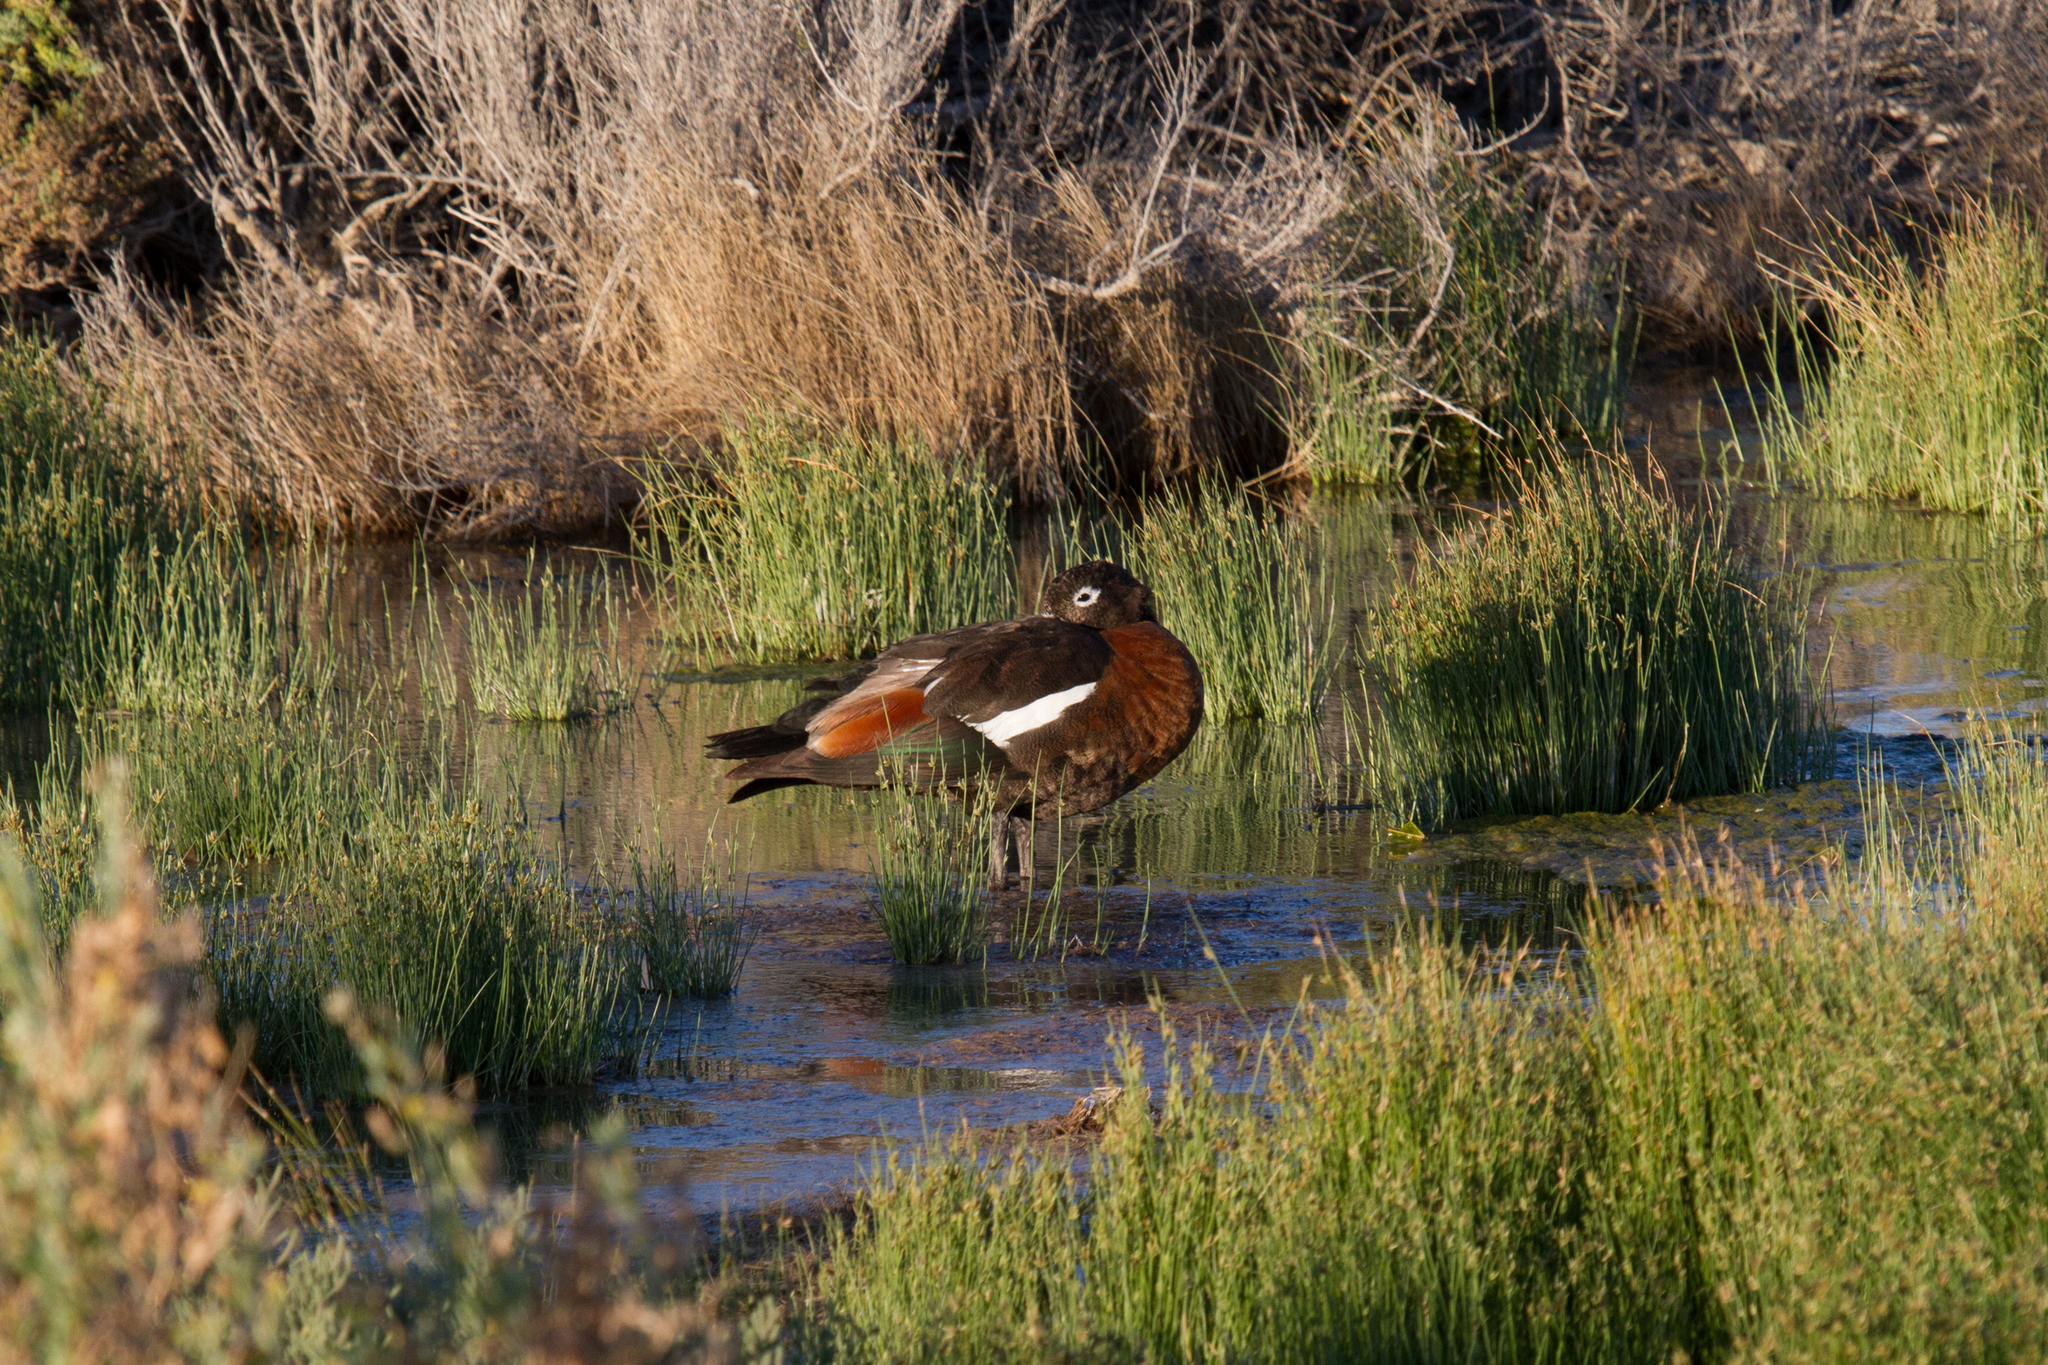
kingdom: Animalia
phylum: Chordata
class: Aves
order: Anseriformes
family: Anatidae
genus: Tadorna
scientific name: Tadorna tadornoides
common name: Australian shelduck
